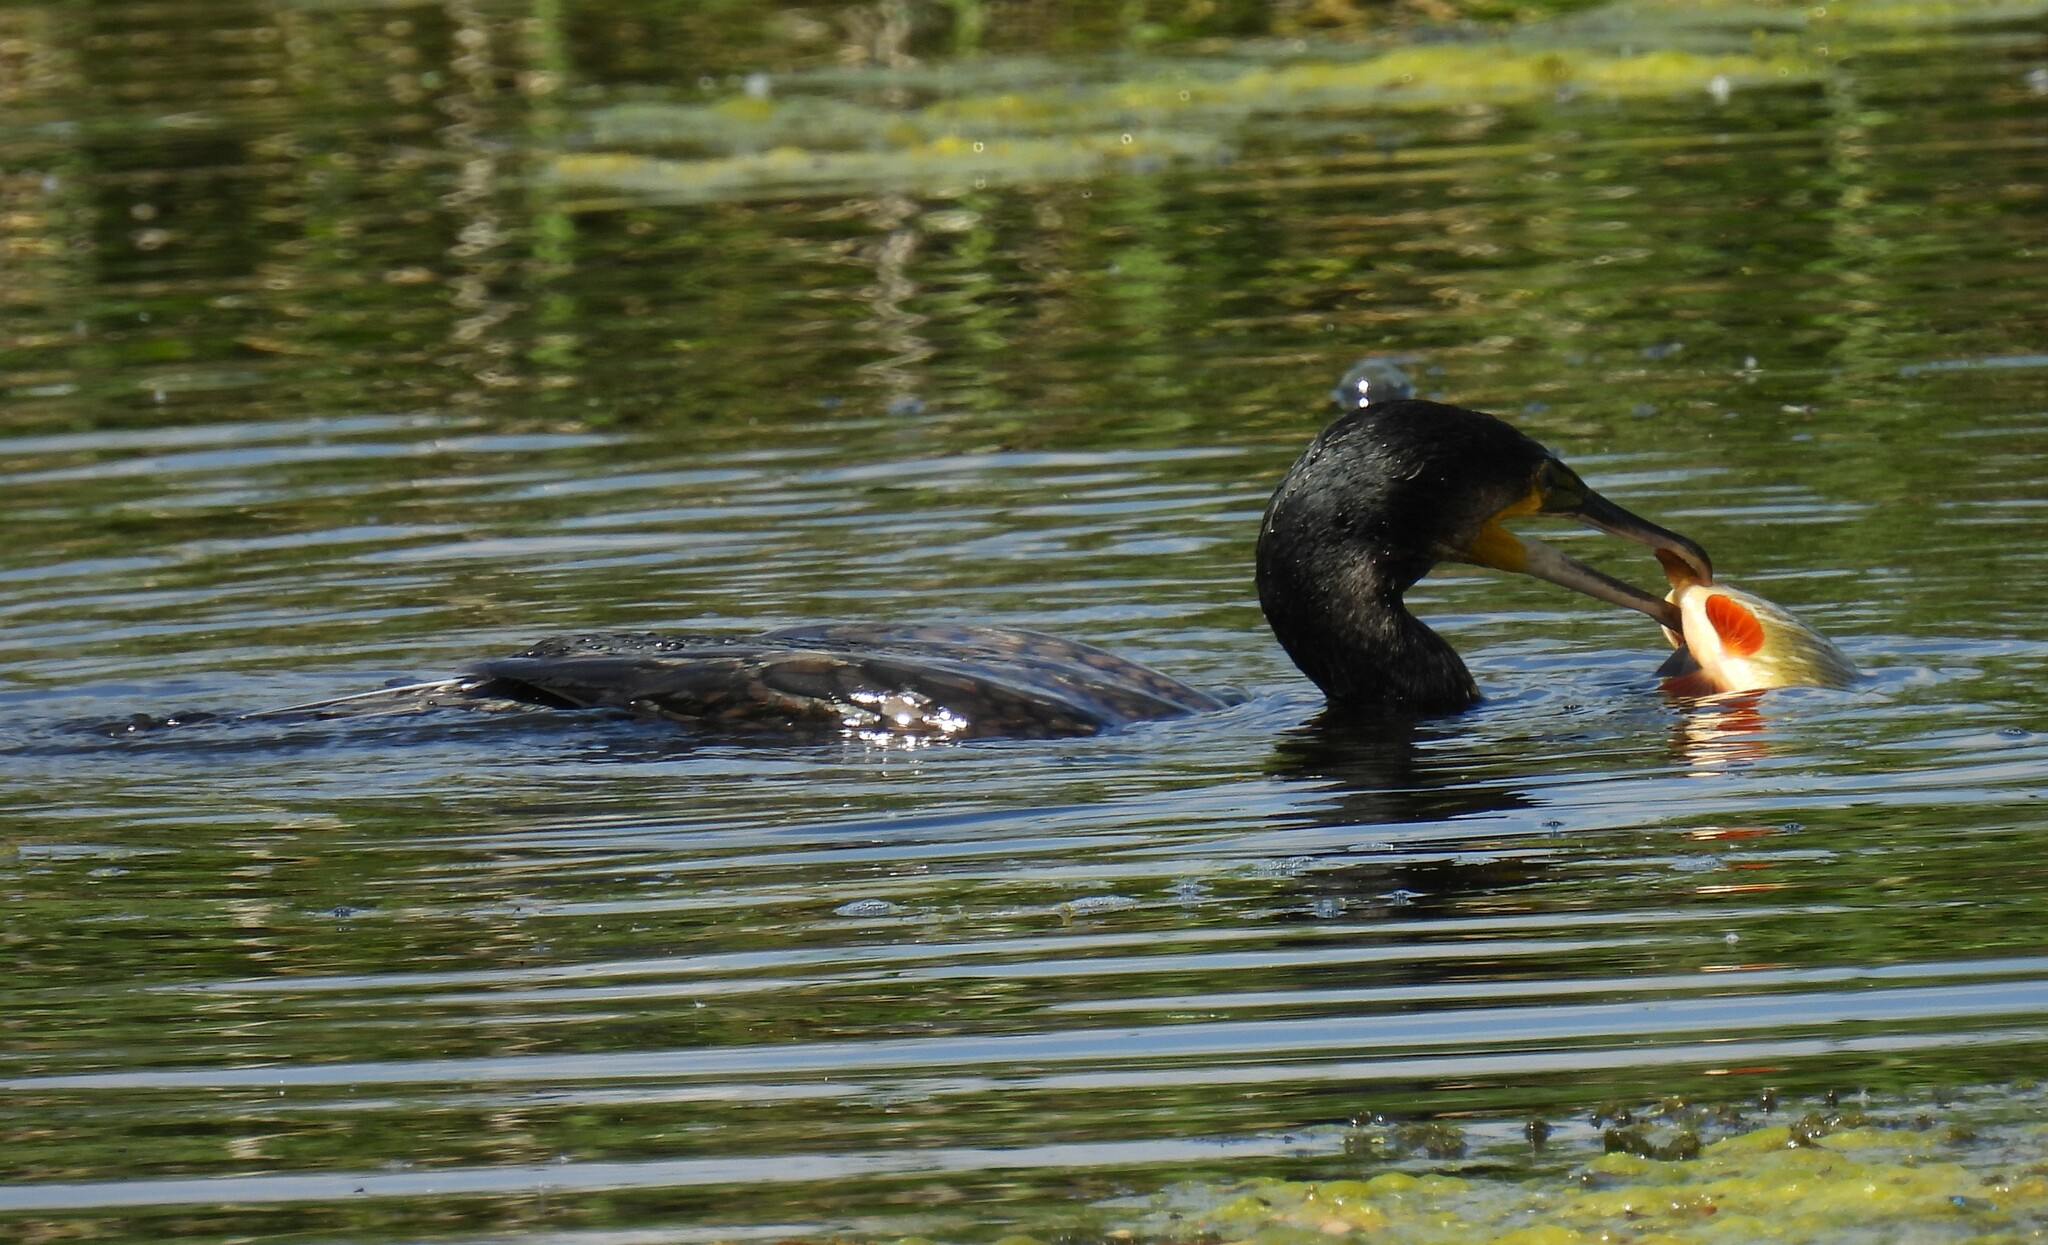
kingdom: Animalia
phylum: Chordata
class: Aves
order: Suliformes
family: Phalacrocoracidae
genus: Phalacrocorax
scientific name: Phalacrocorax carbo
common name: Great cormorant
